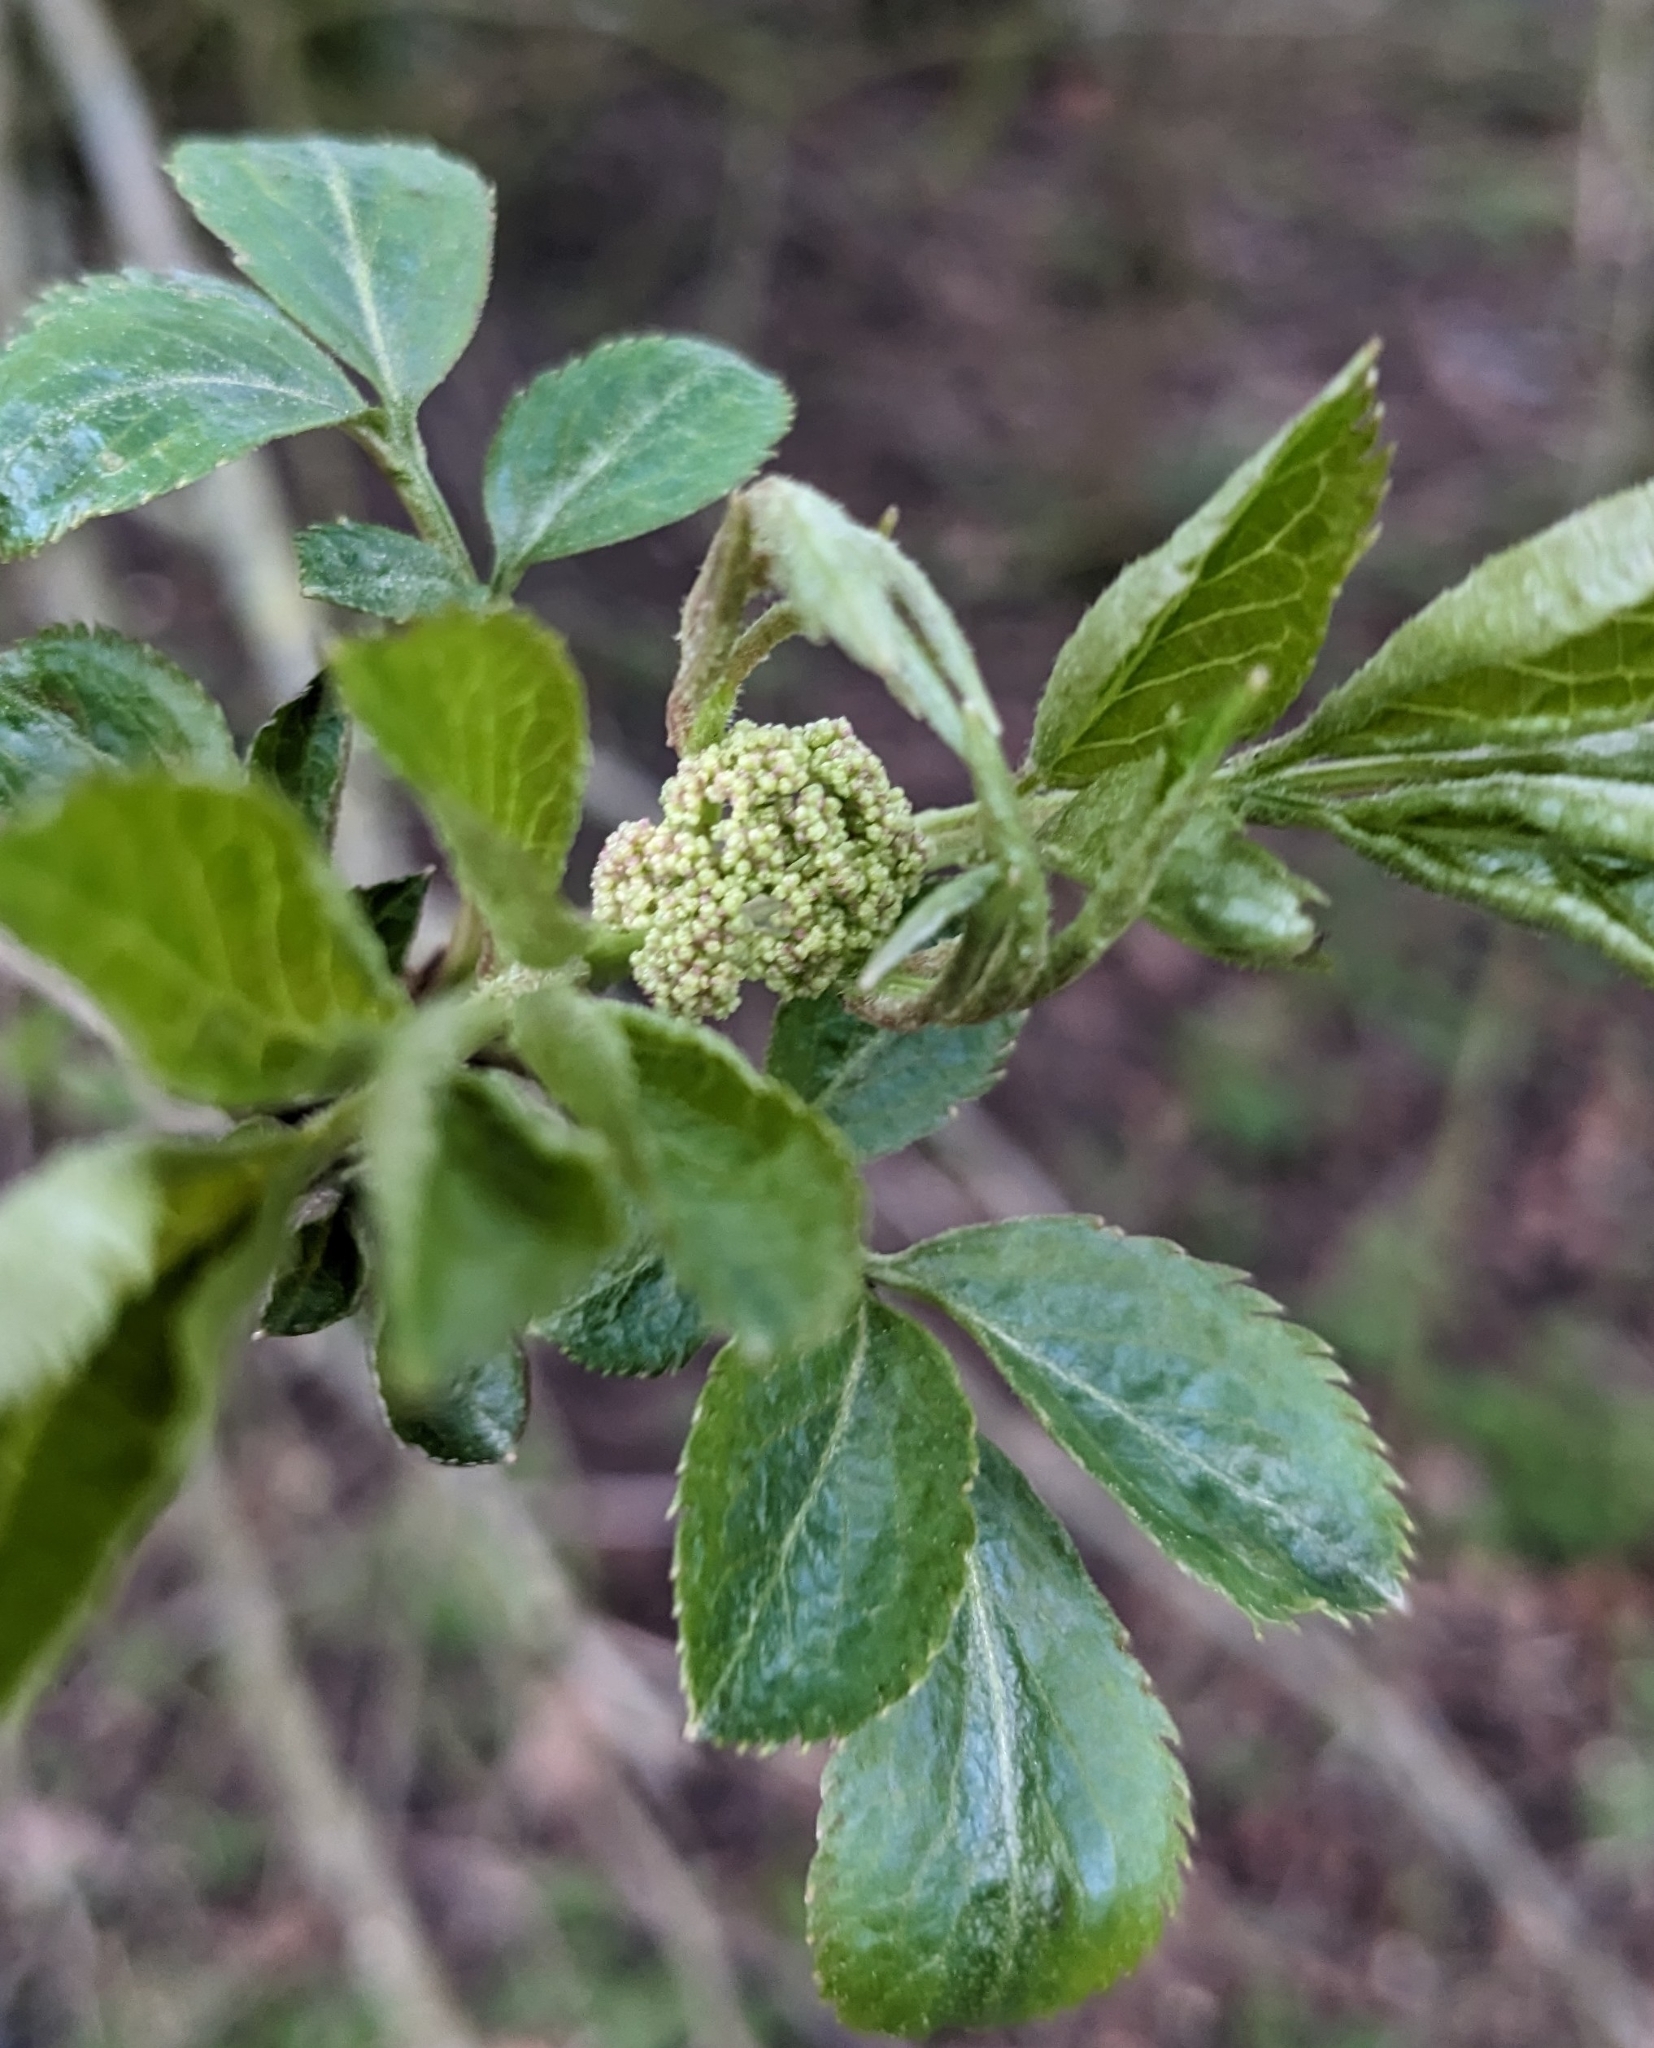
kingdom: Plantae
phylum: Tracheophyta
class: Magnoliopsida
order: Dipsacales
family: Viburnaceae
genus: Sambucus
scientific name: Sambucus nigra
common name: Elder
